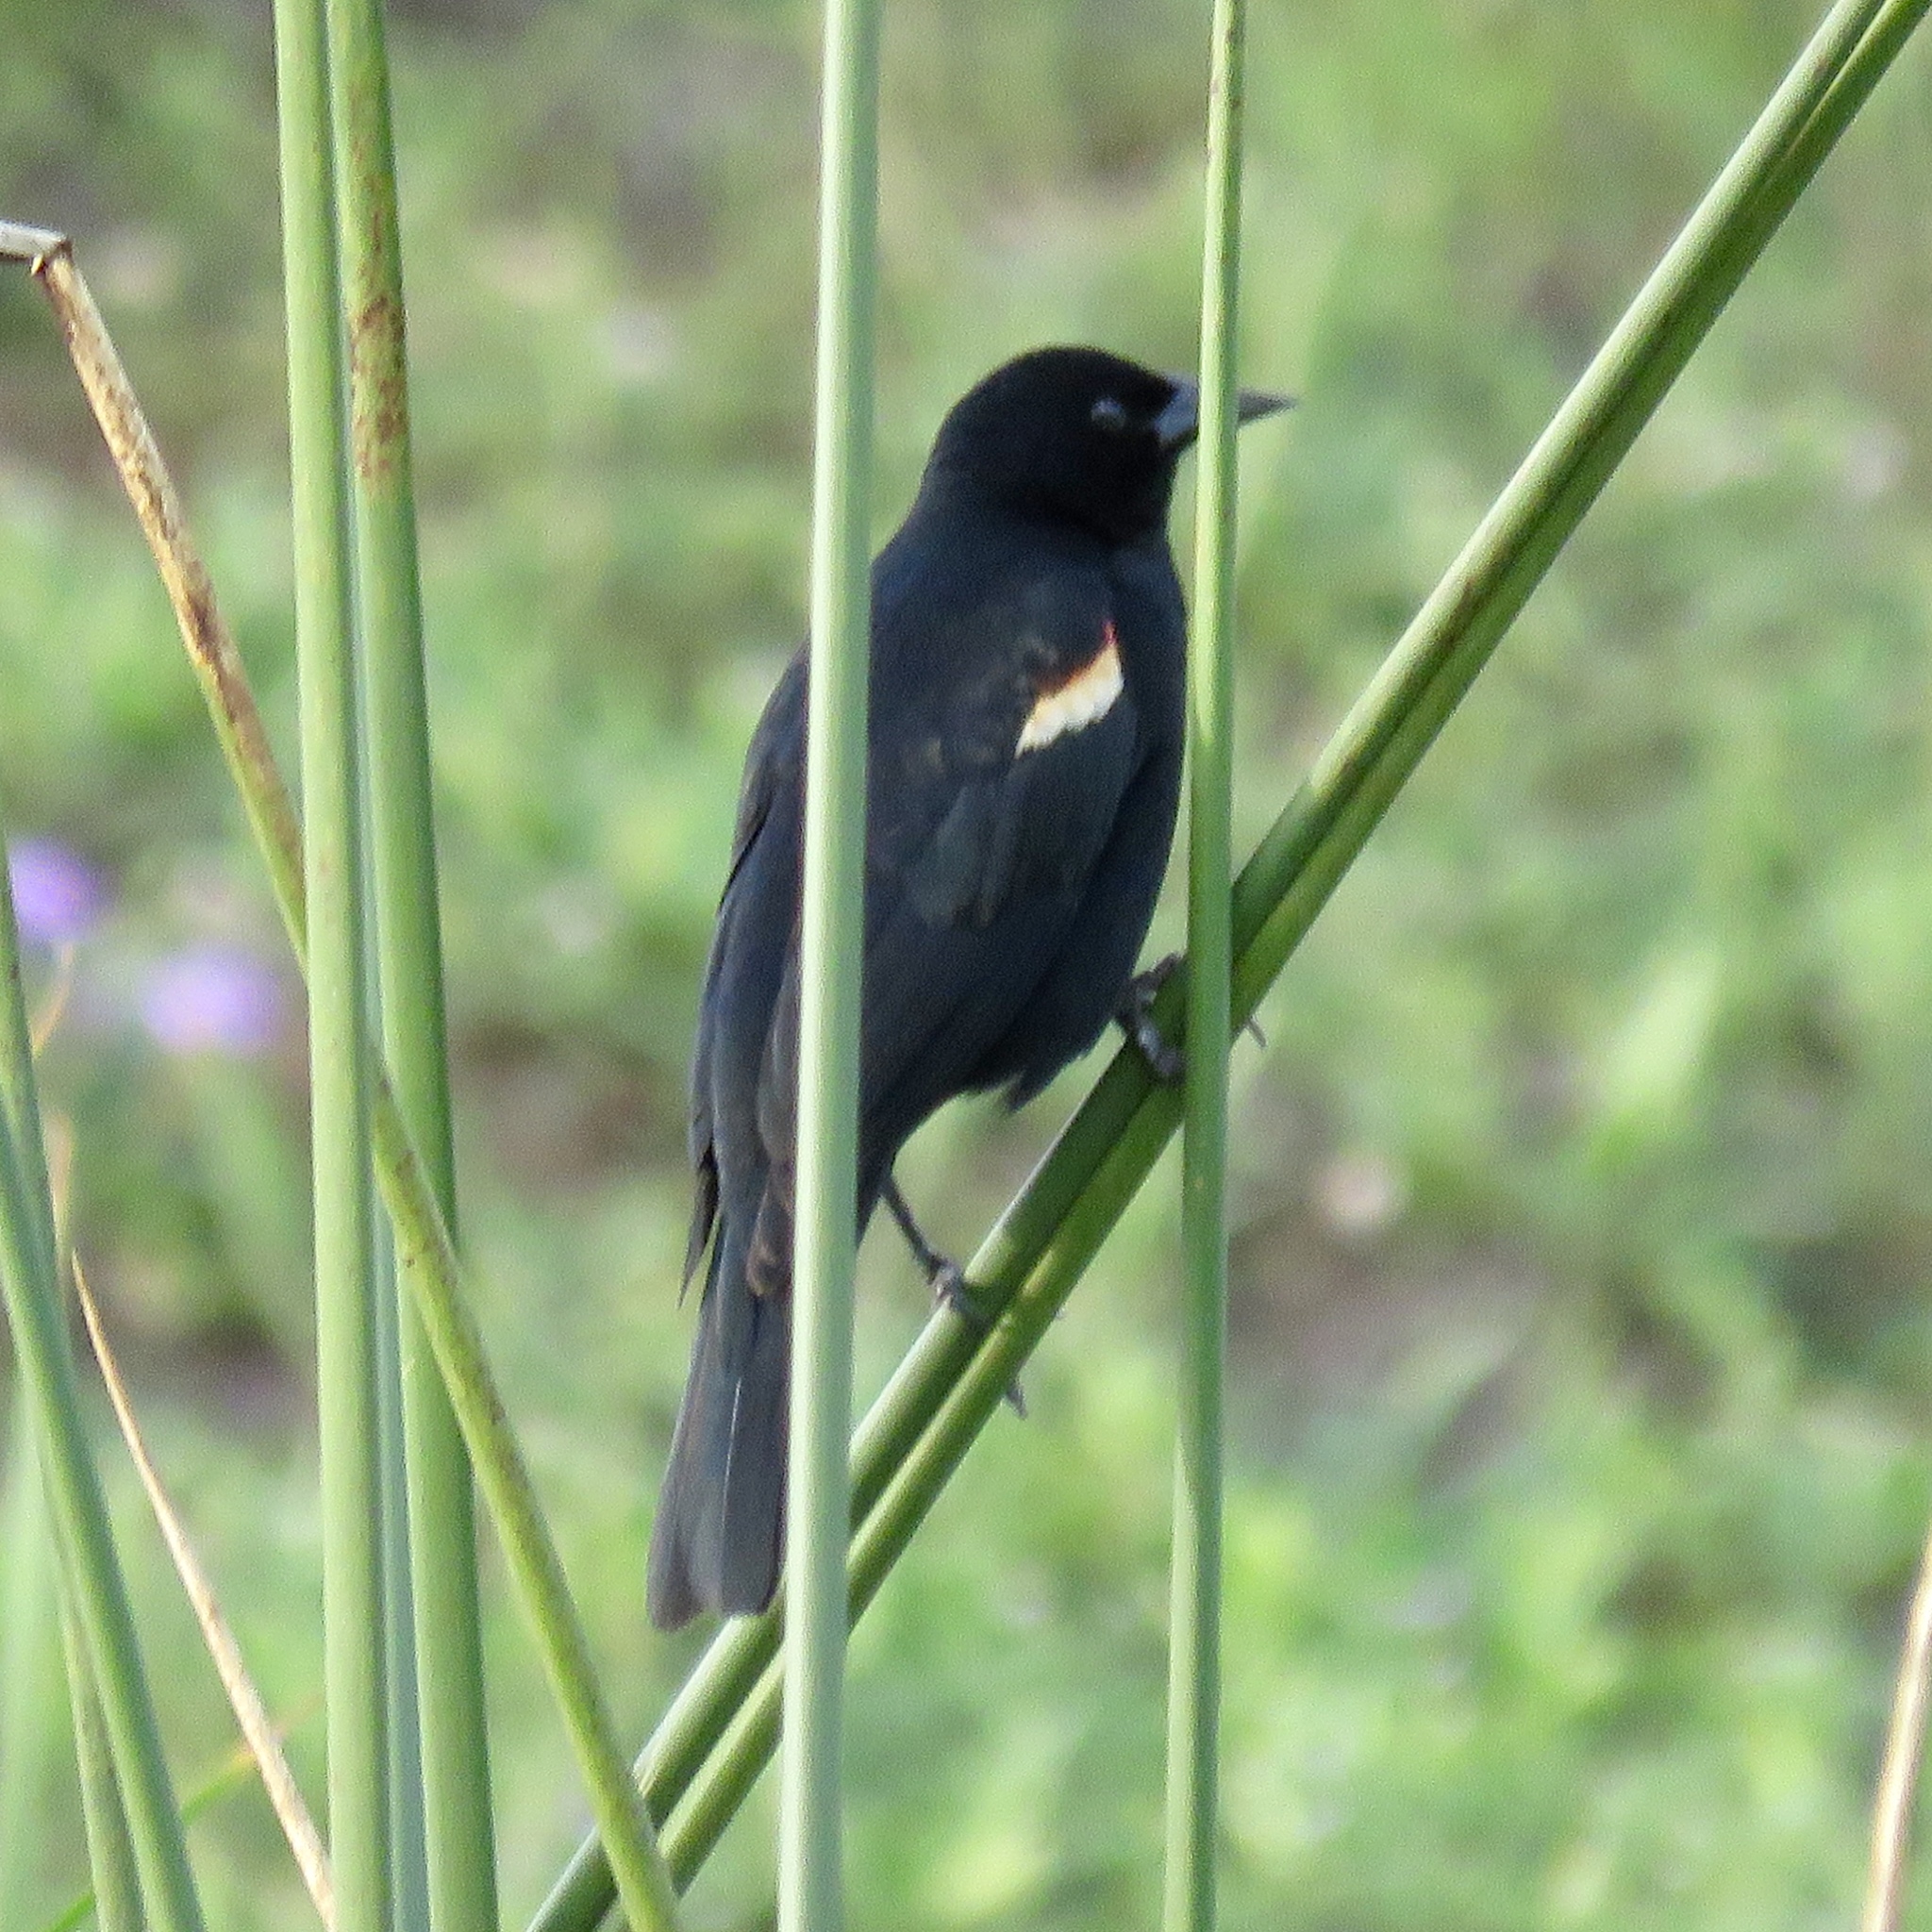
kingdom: Animalia
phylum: Chordata
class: Aves
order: Passeriformes
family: Icteridae
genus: Agelaius
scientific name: Agelaius phoeniceus
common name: Red-winged blackbird
